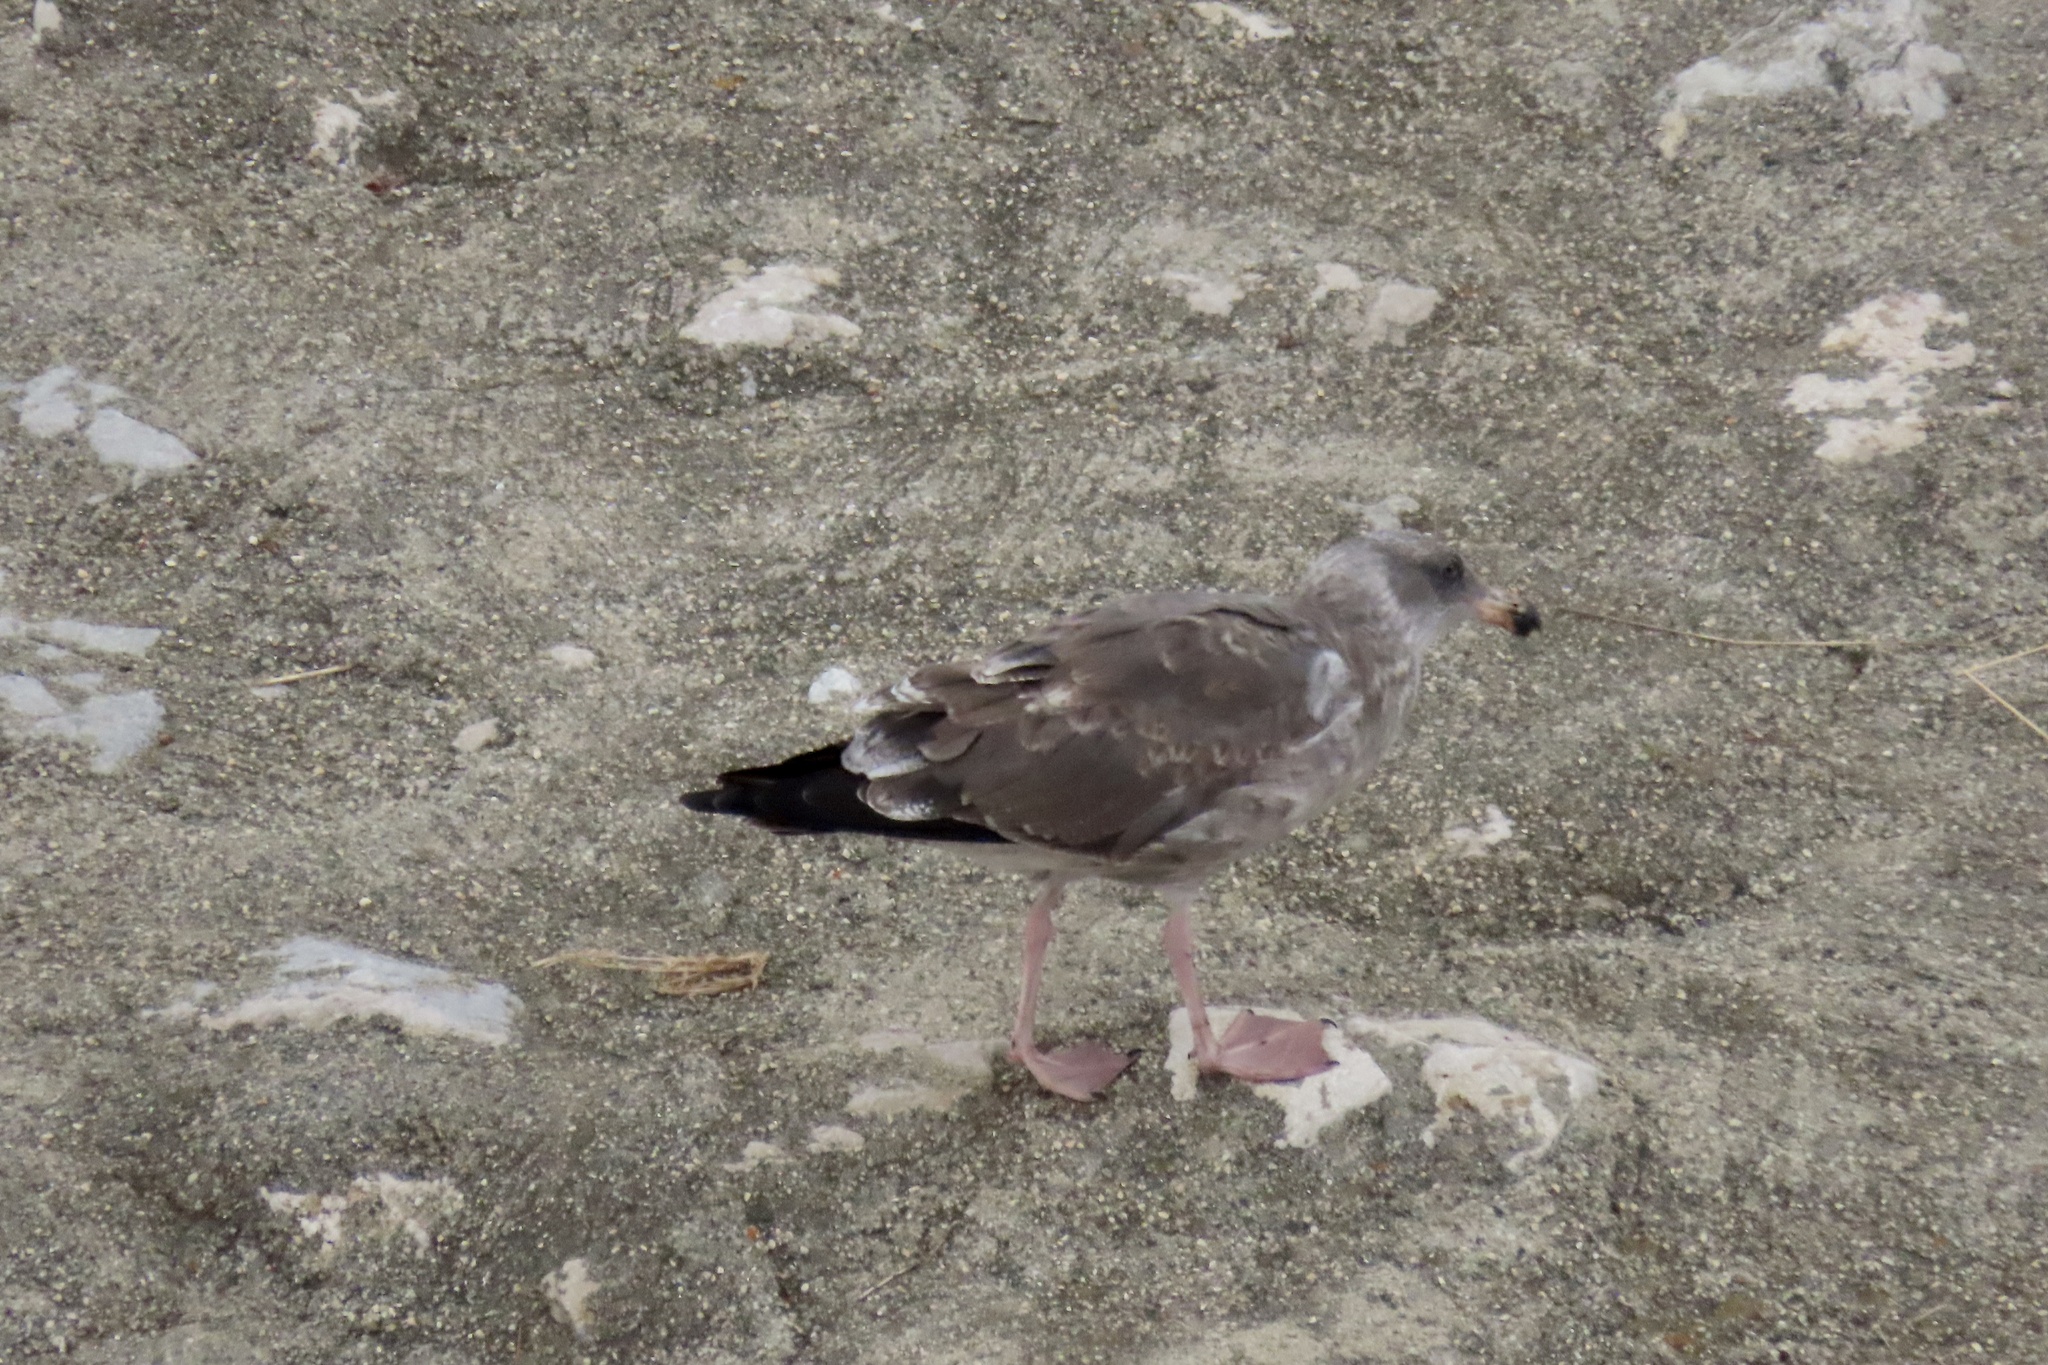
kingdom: Animalia
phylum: Chordata
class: Aves
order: Charadriiformes
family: Laridae
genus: Larus
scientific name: Larus occidentalis
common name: Western gull
